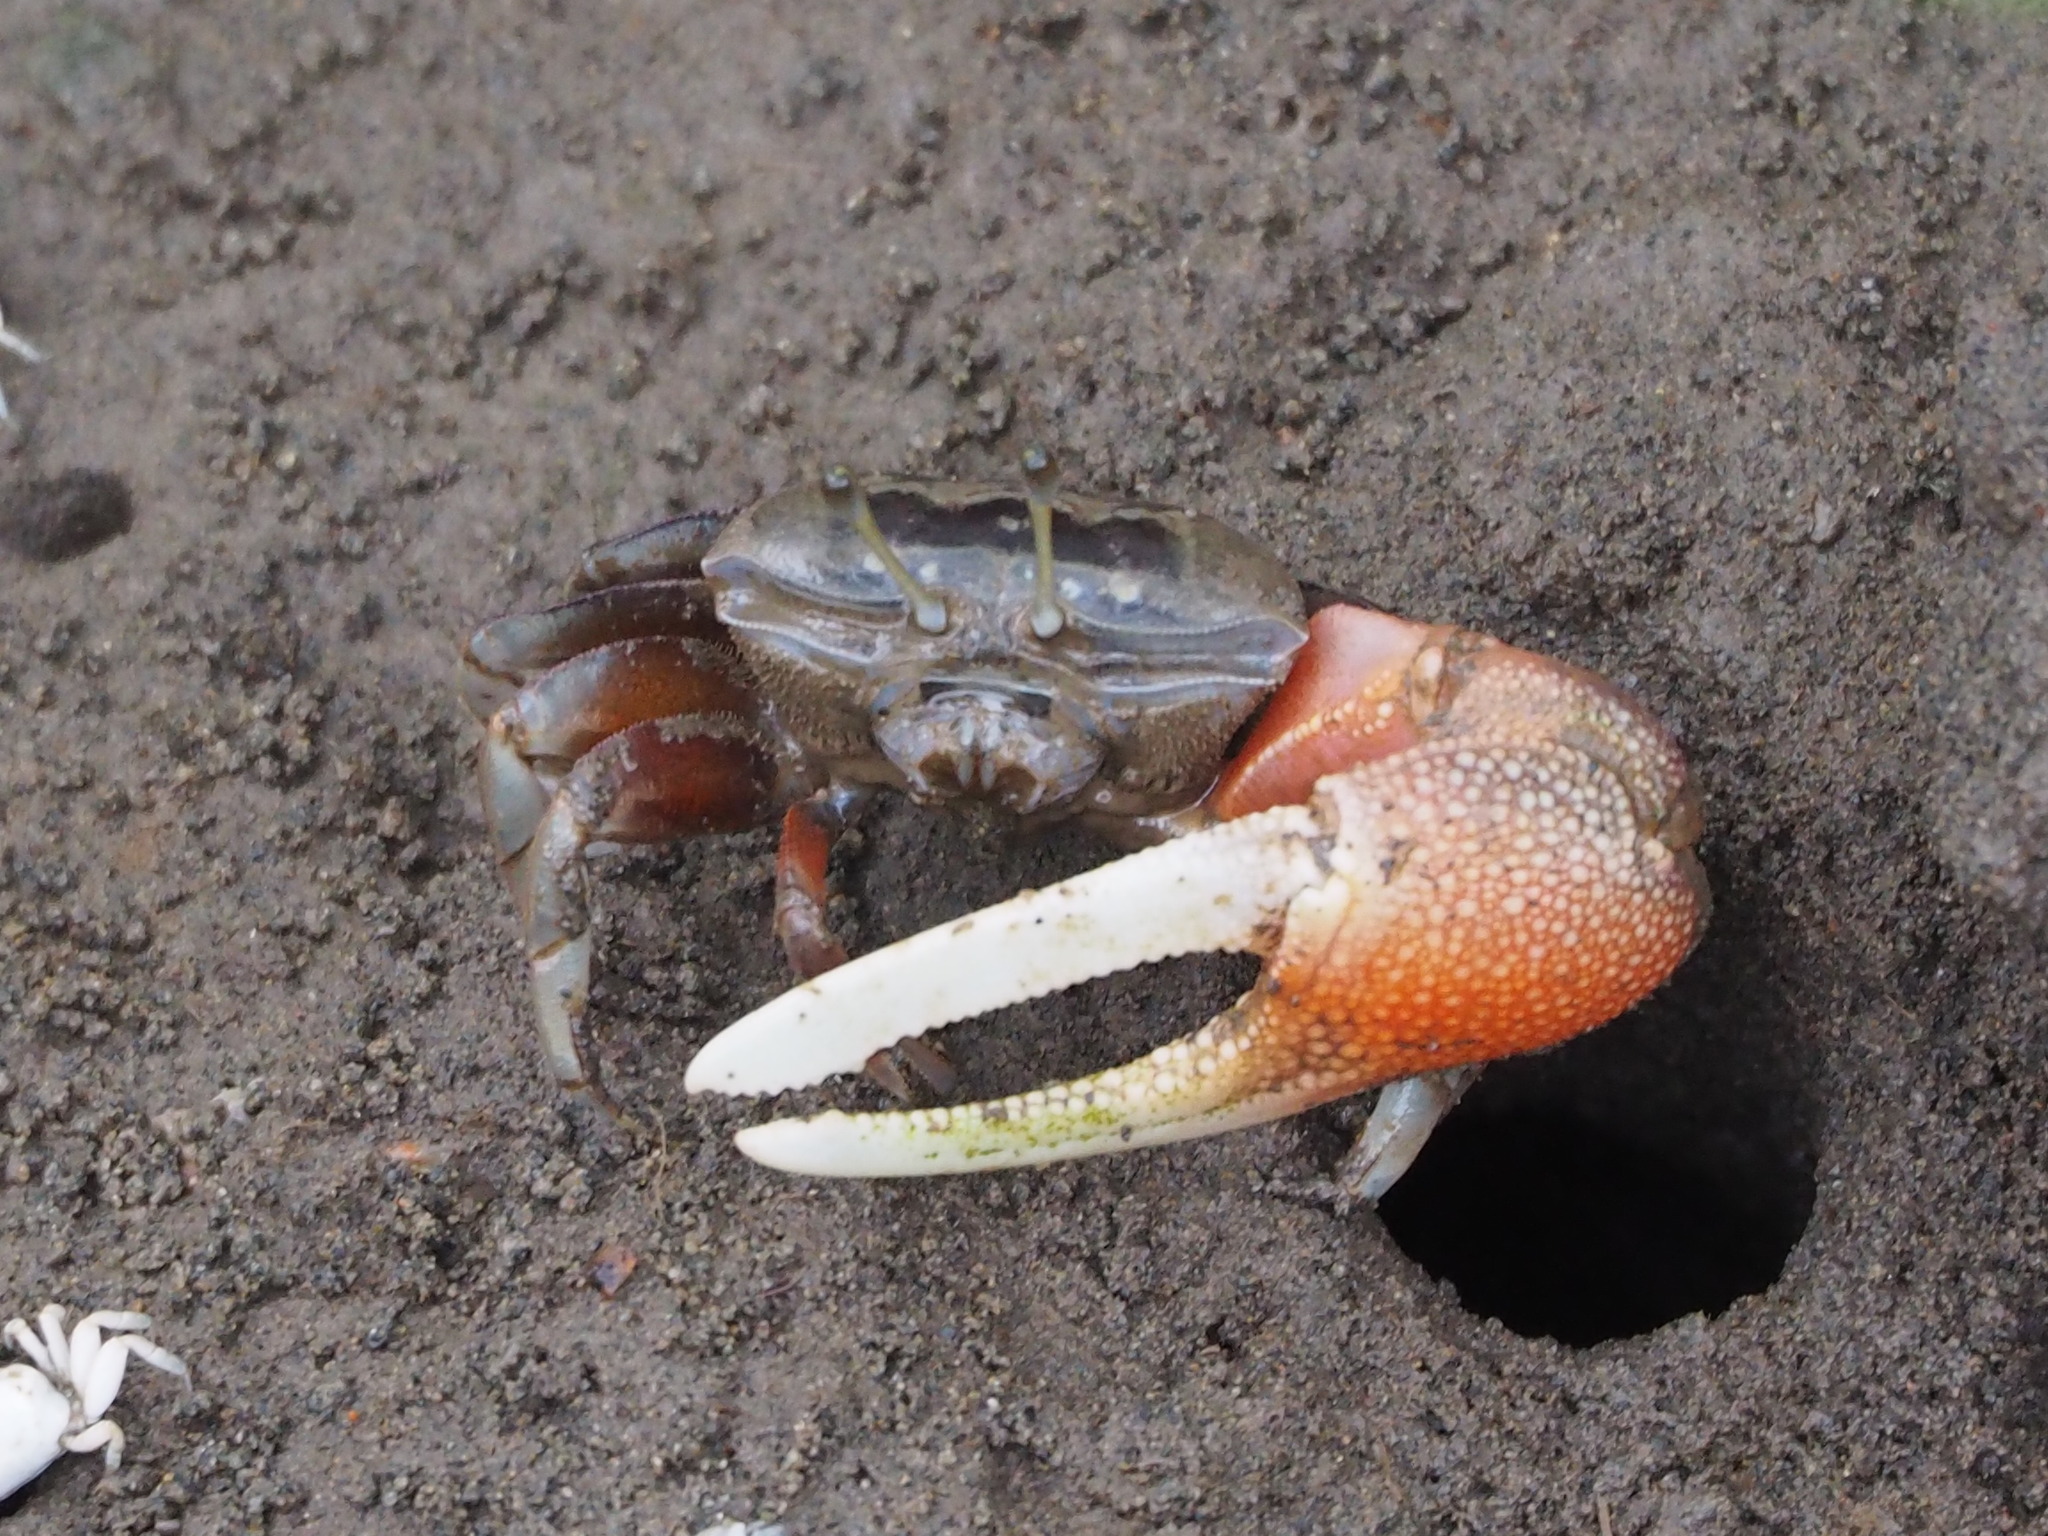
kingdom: Animalia
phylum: Arthropoda
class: Malacostraca
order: Decapoda
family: Ocypodidae
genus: Tubuca
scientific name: Tubuca arcuata
